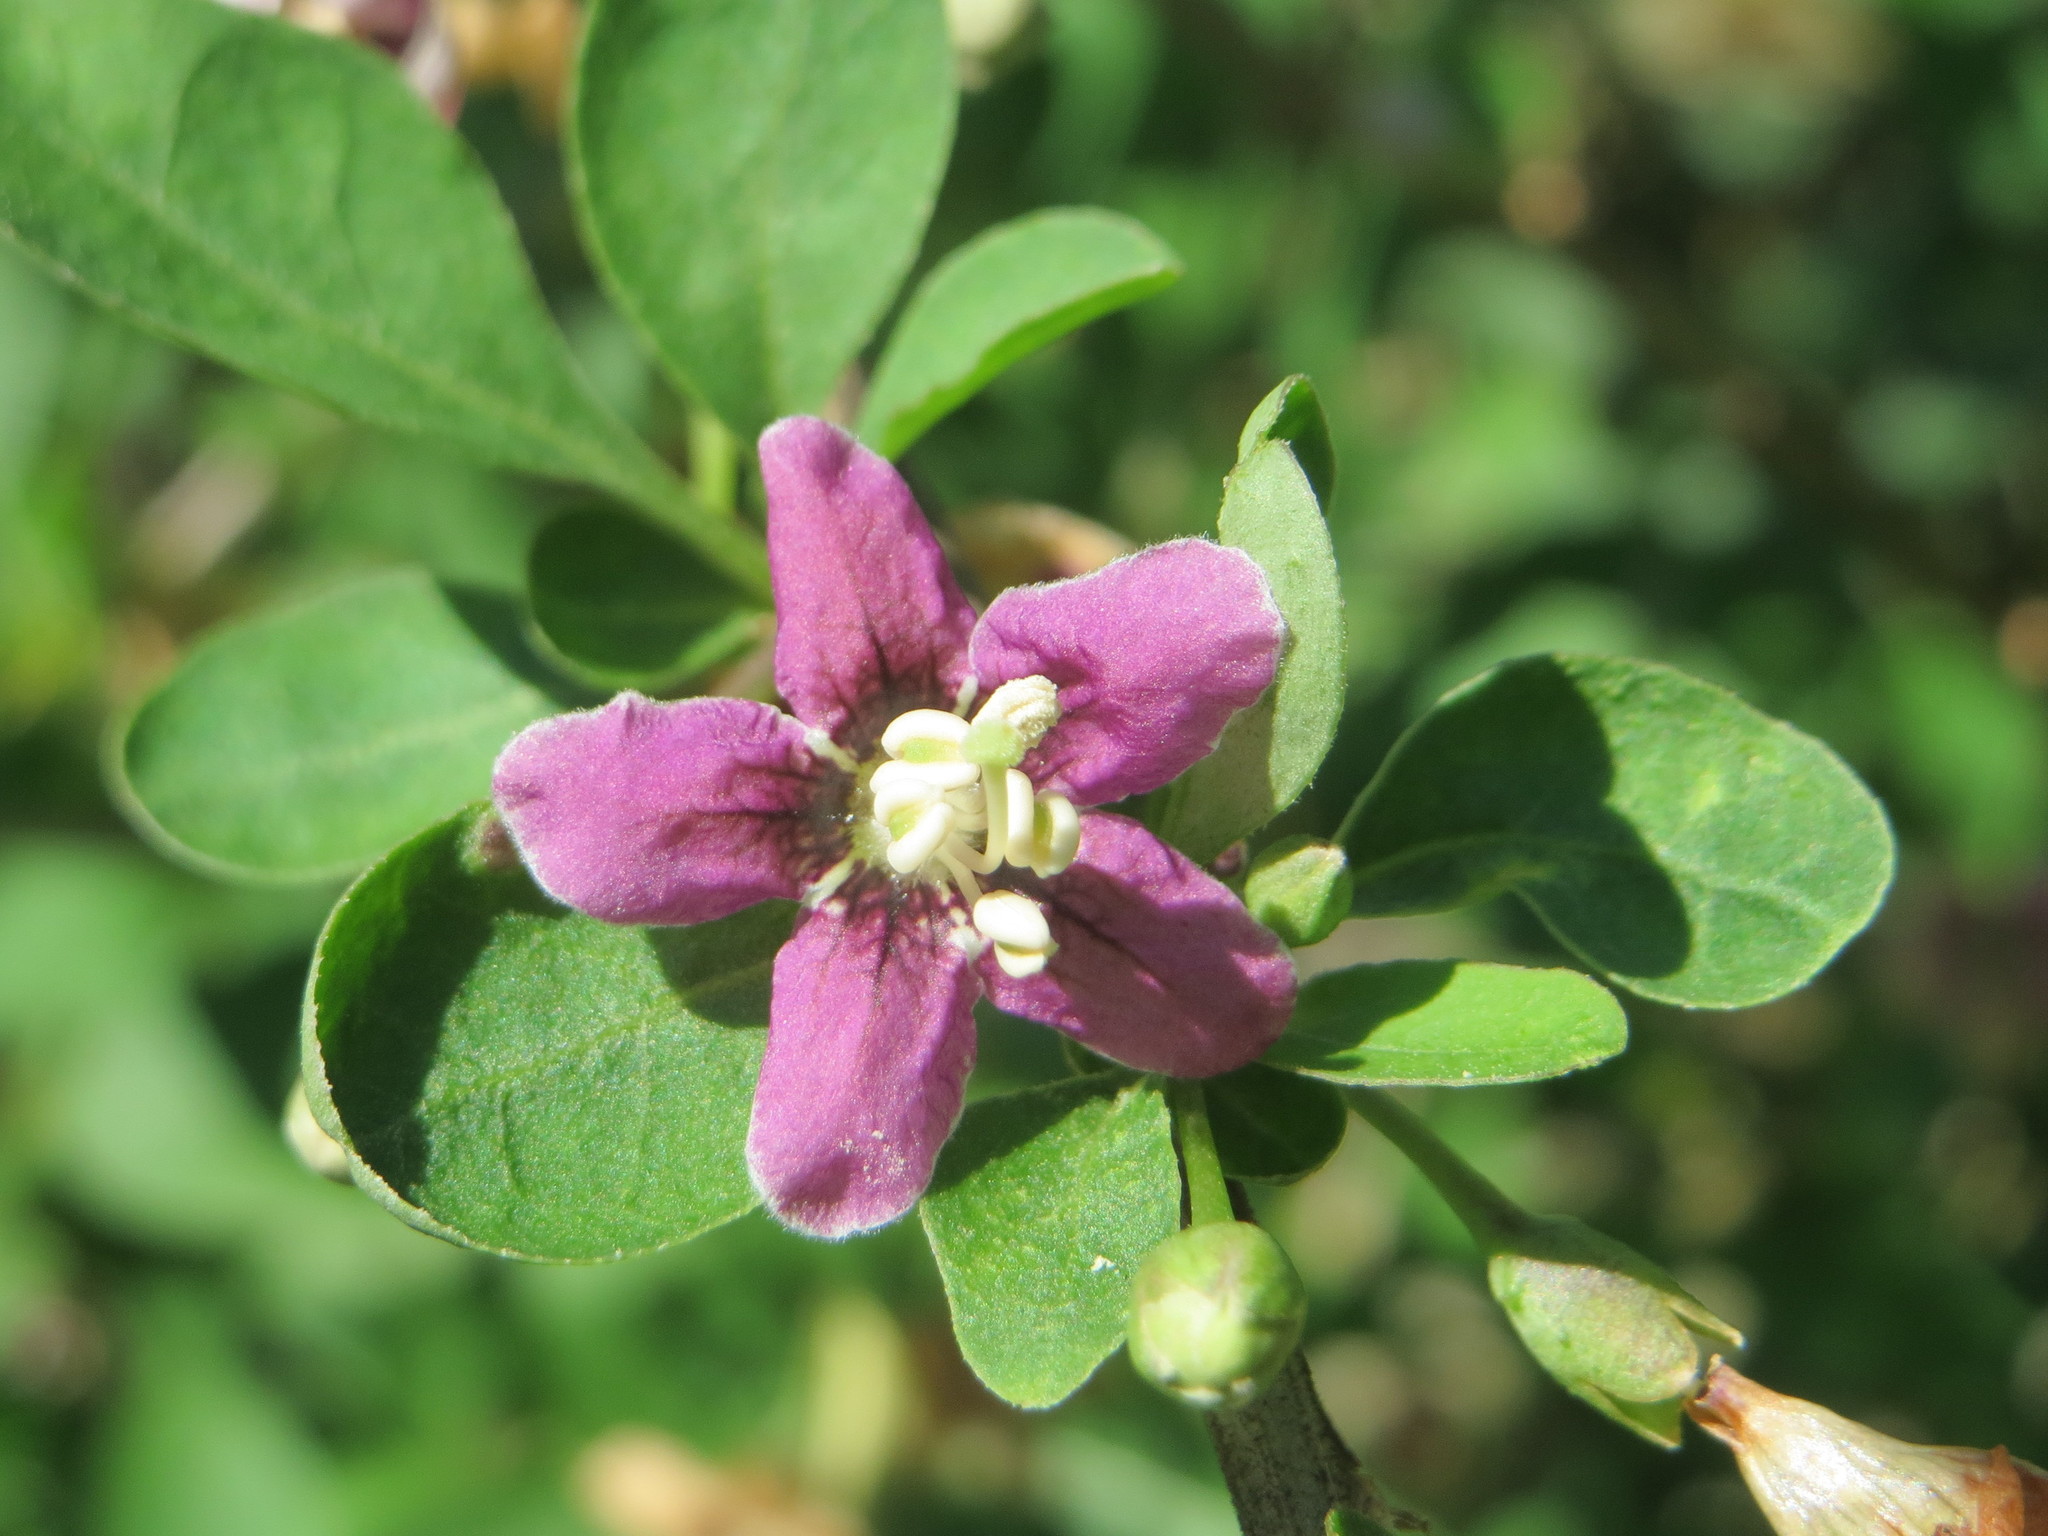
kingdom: Plantae
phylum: Tracheophyta
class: Magnoliopsida
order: Solanales
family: Solanaceae
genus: Lycium
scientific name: Lycium chinense
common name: Chinese teaplant
